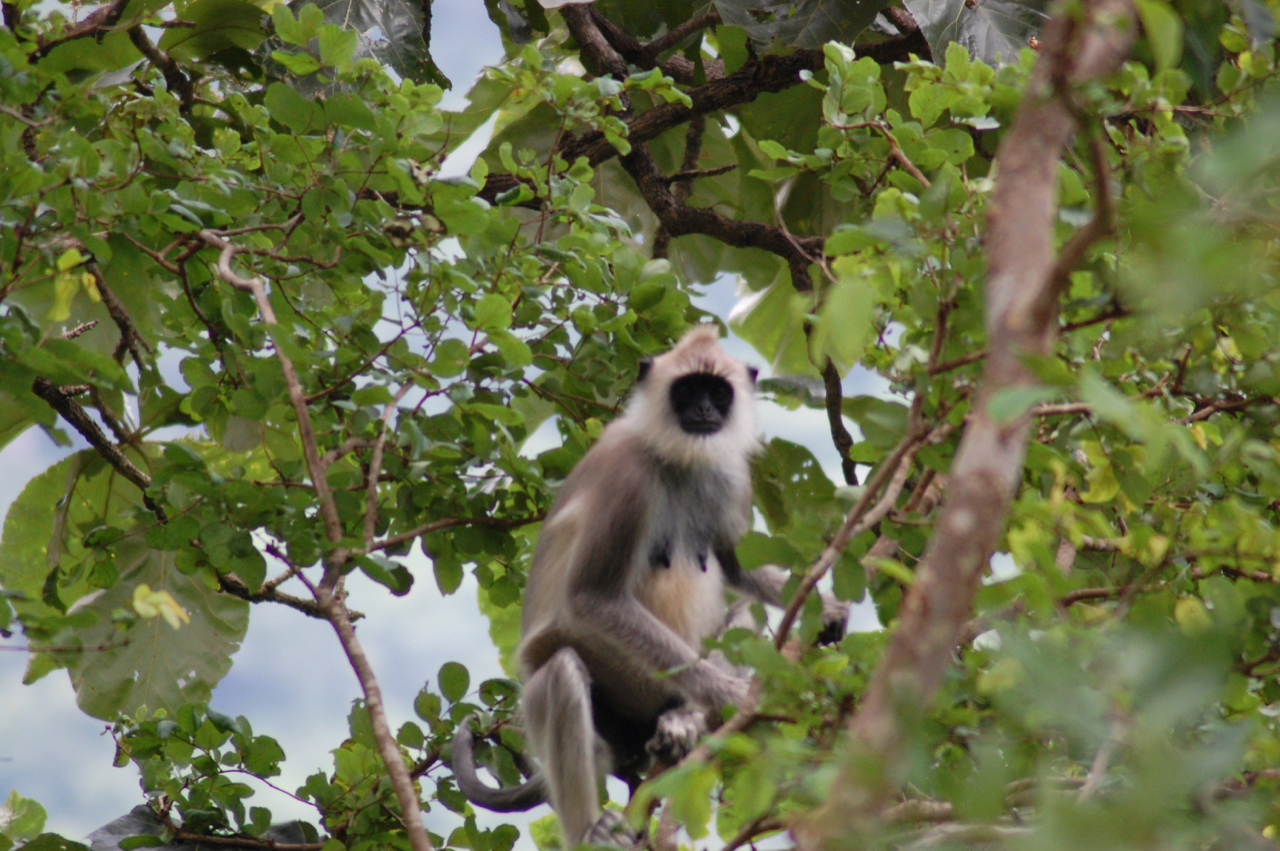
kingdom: Animalia
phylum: Chordata
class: Mammalia
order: Primates
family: Cercopithecidae
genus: Semnopithecus
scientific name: Semnopithecus priam
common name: Tufted gray langur
